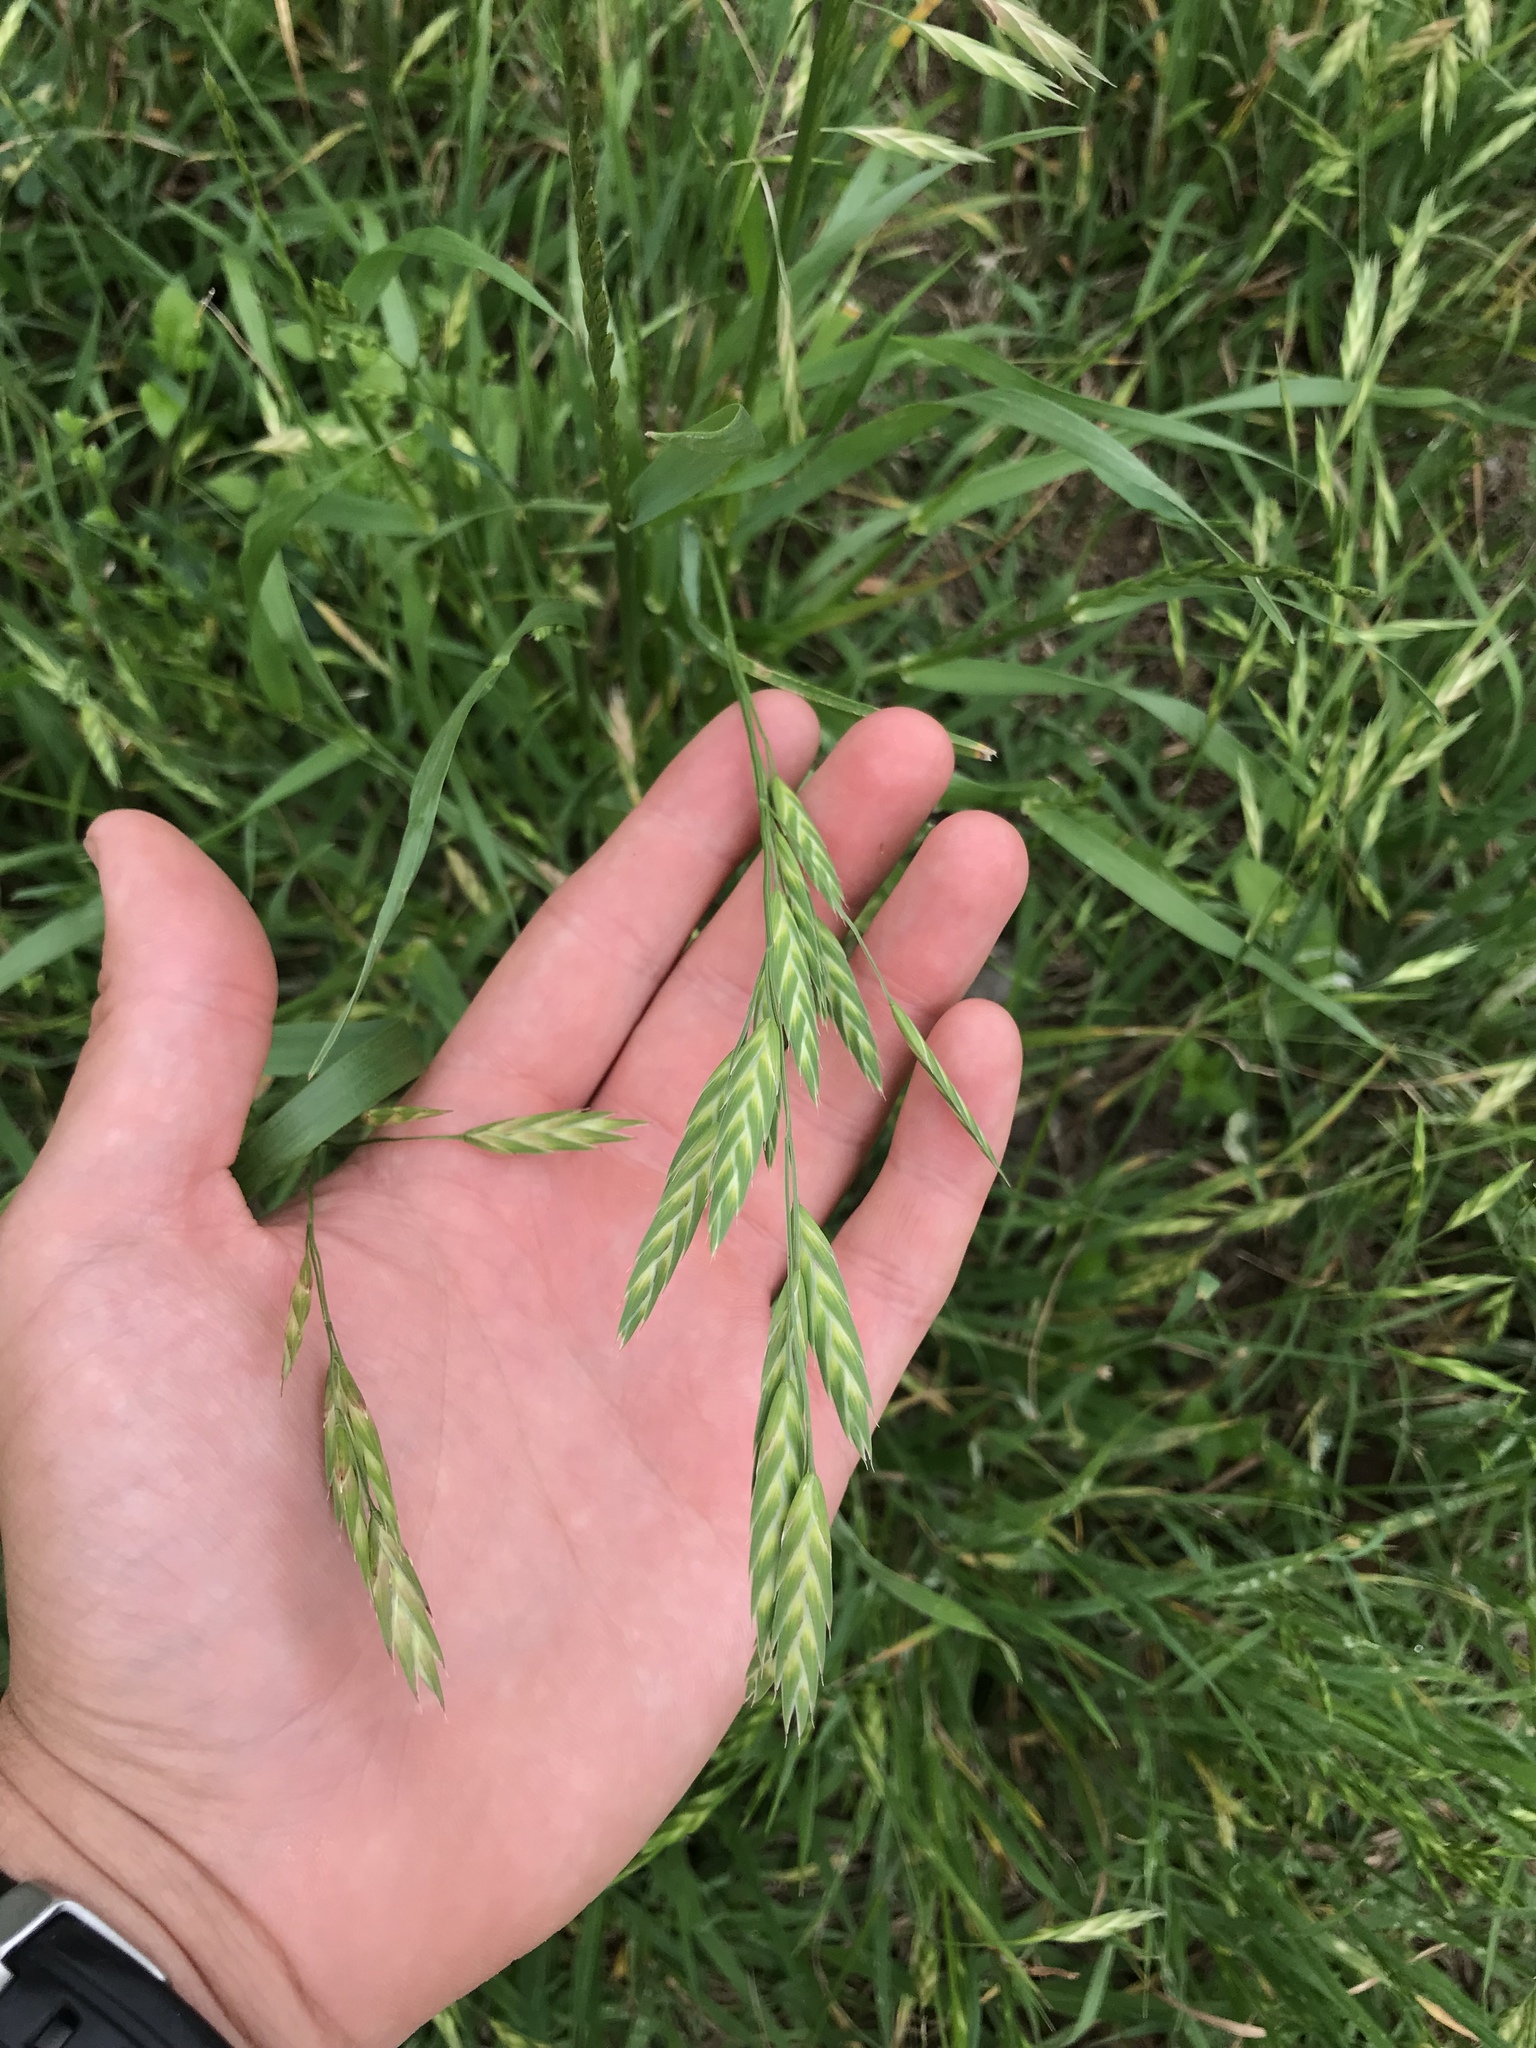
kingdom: Plantae
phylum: Tracheophyta
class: Liliopsida
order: Poales
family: Poaceae
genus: Bromus
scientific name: Bromus catharticus
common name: Rescuegrass
